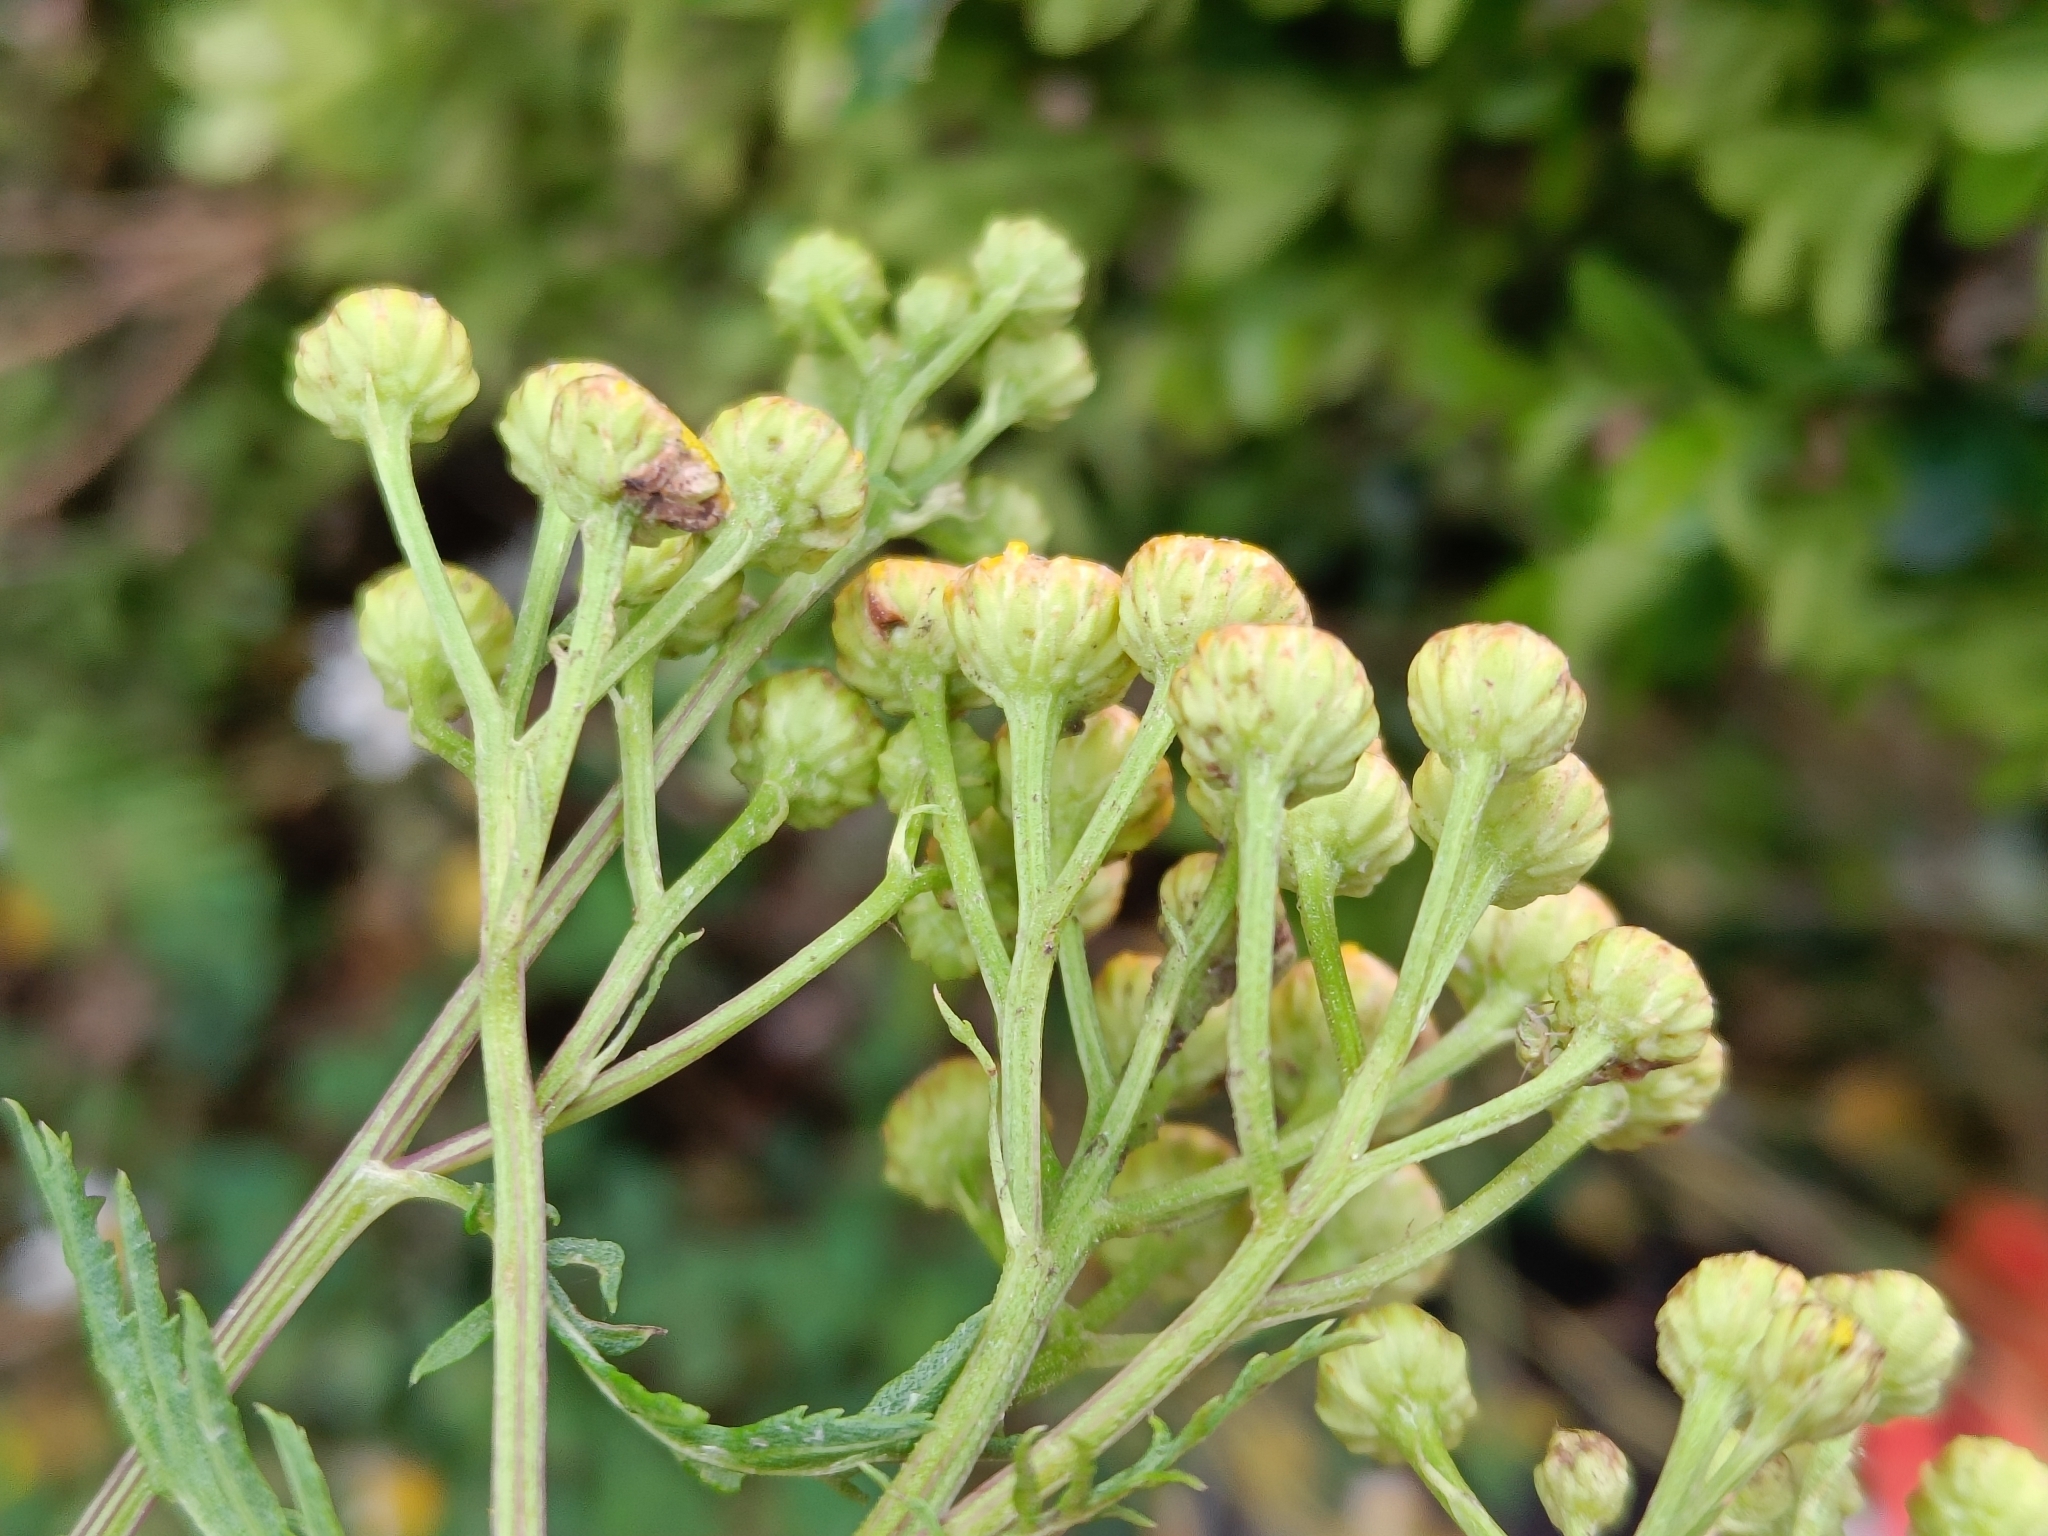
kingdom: Plantae
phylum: Tracheophyta
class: Magnoliopsida
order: Asterales
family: Asteraceae
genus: Tanacetum
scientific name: Tanacetum vulgare
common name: Common tansy
